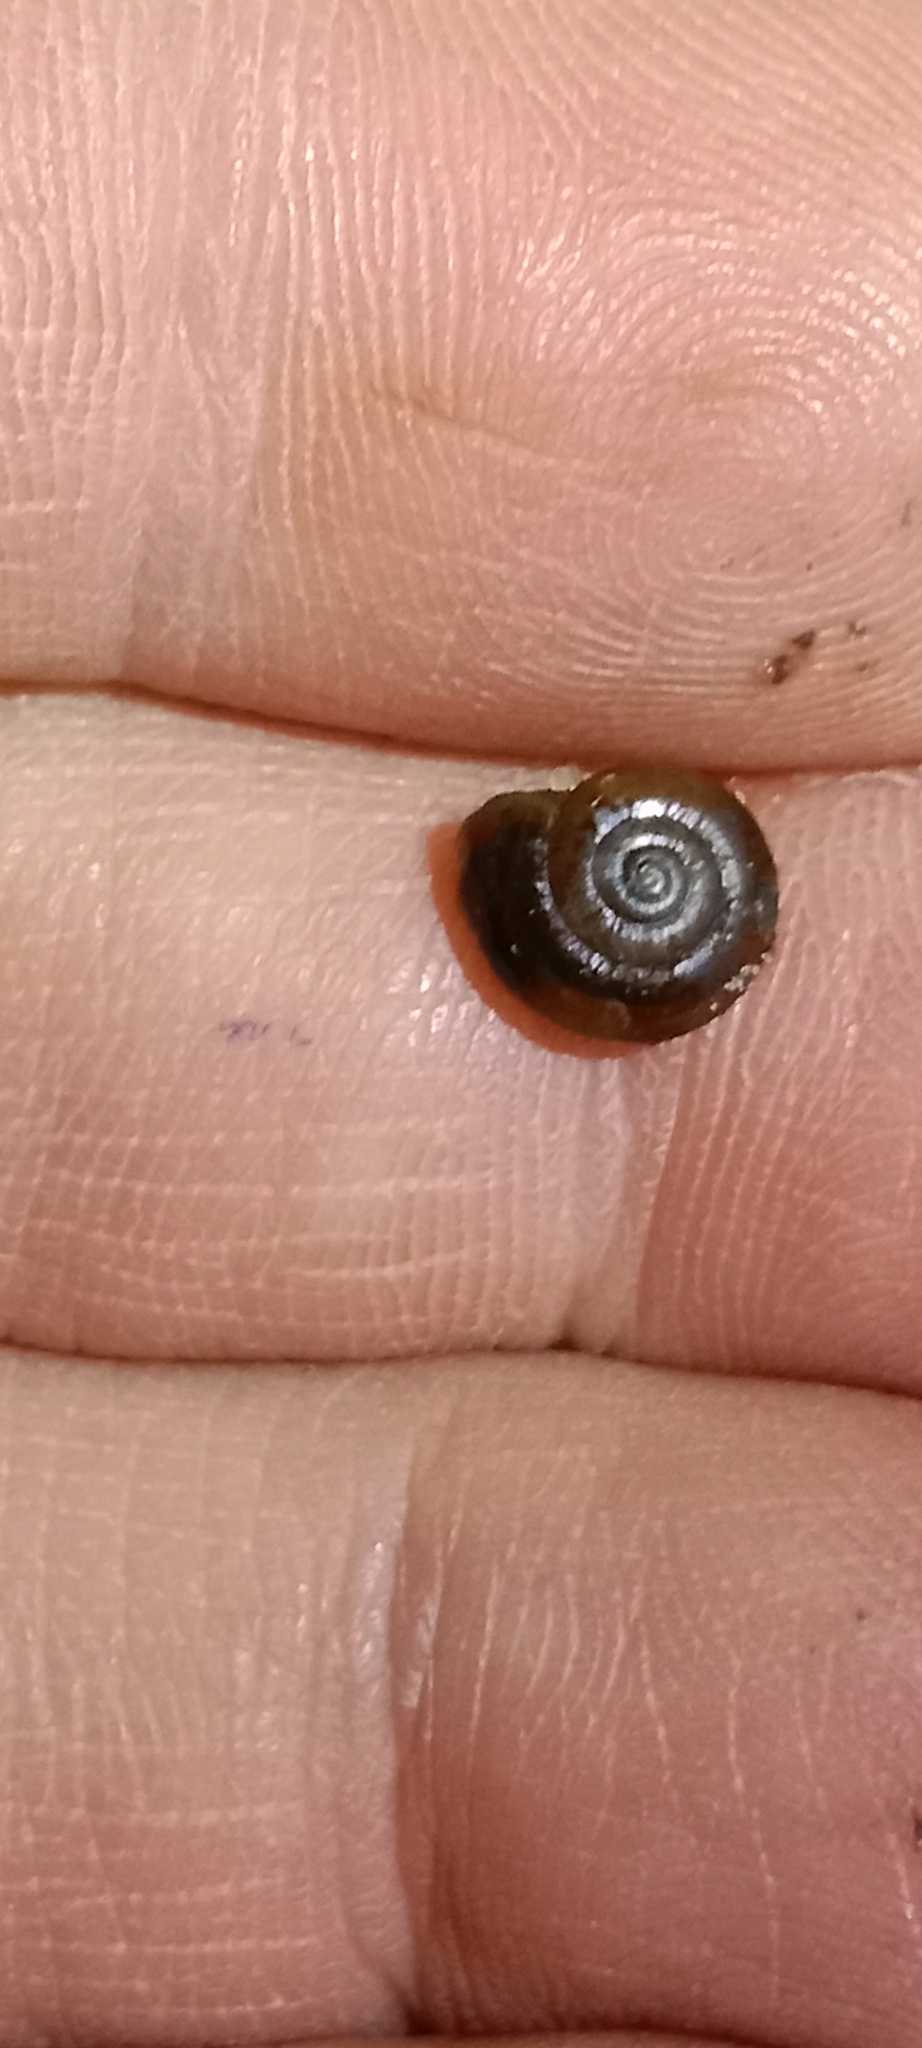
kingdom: Animalia
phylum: Mollusca
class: Gastropoda
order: Stylommatophora
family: Oxychilidae
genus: Oxychilus
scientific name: Oxychilus translucidus
